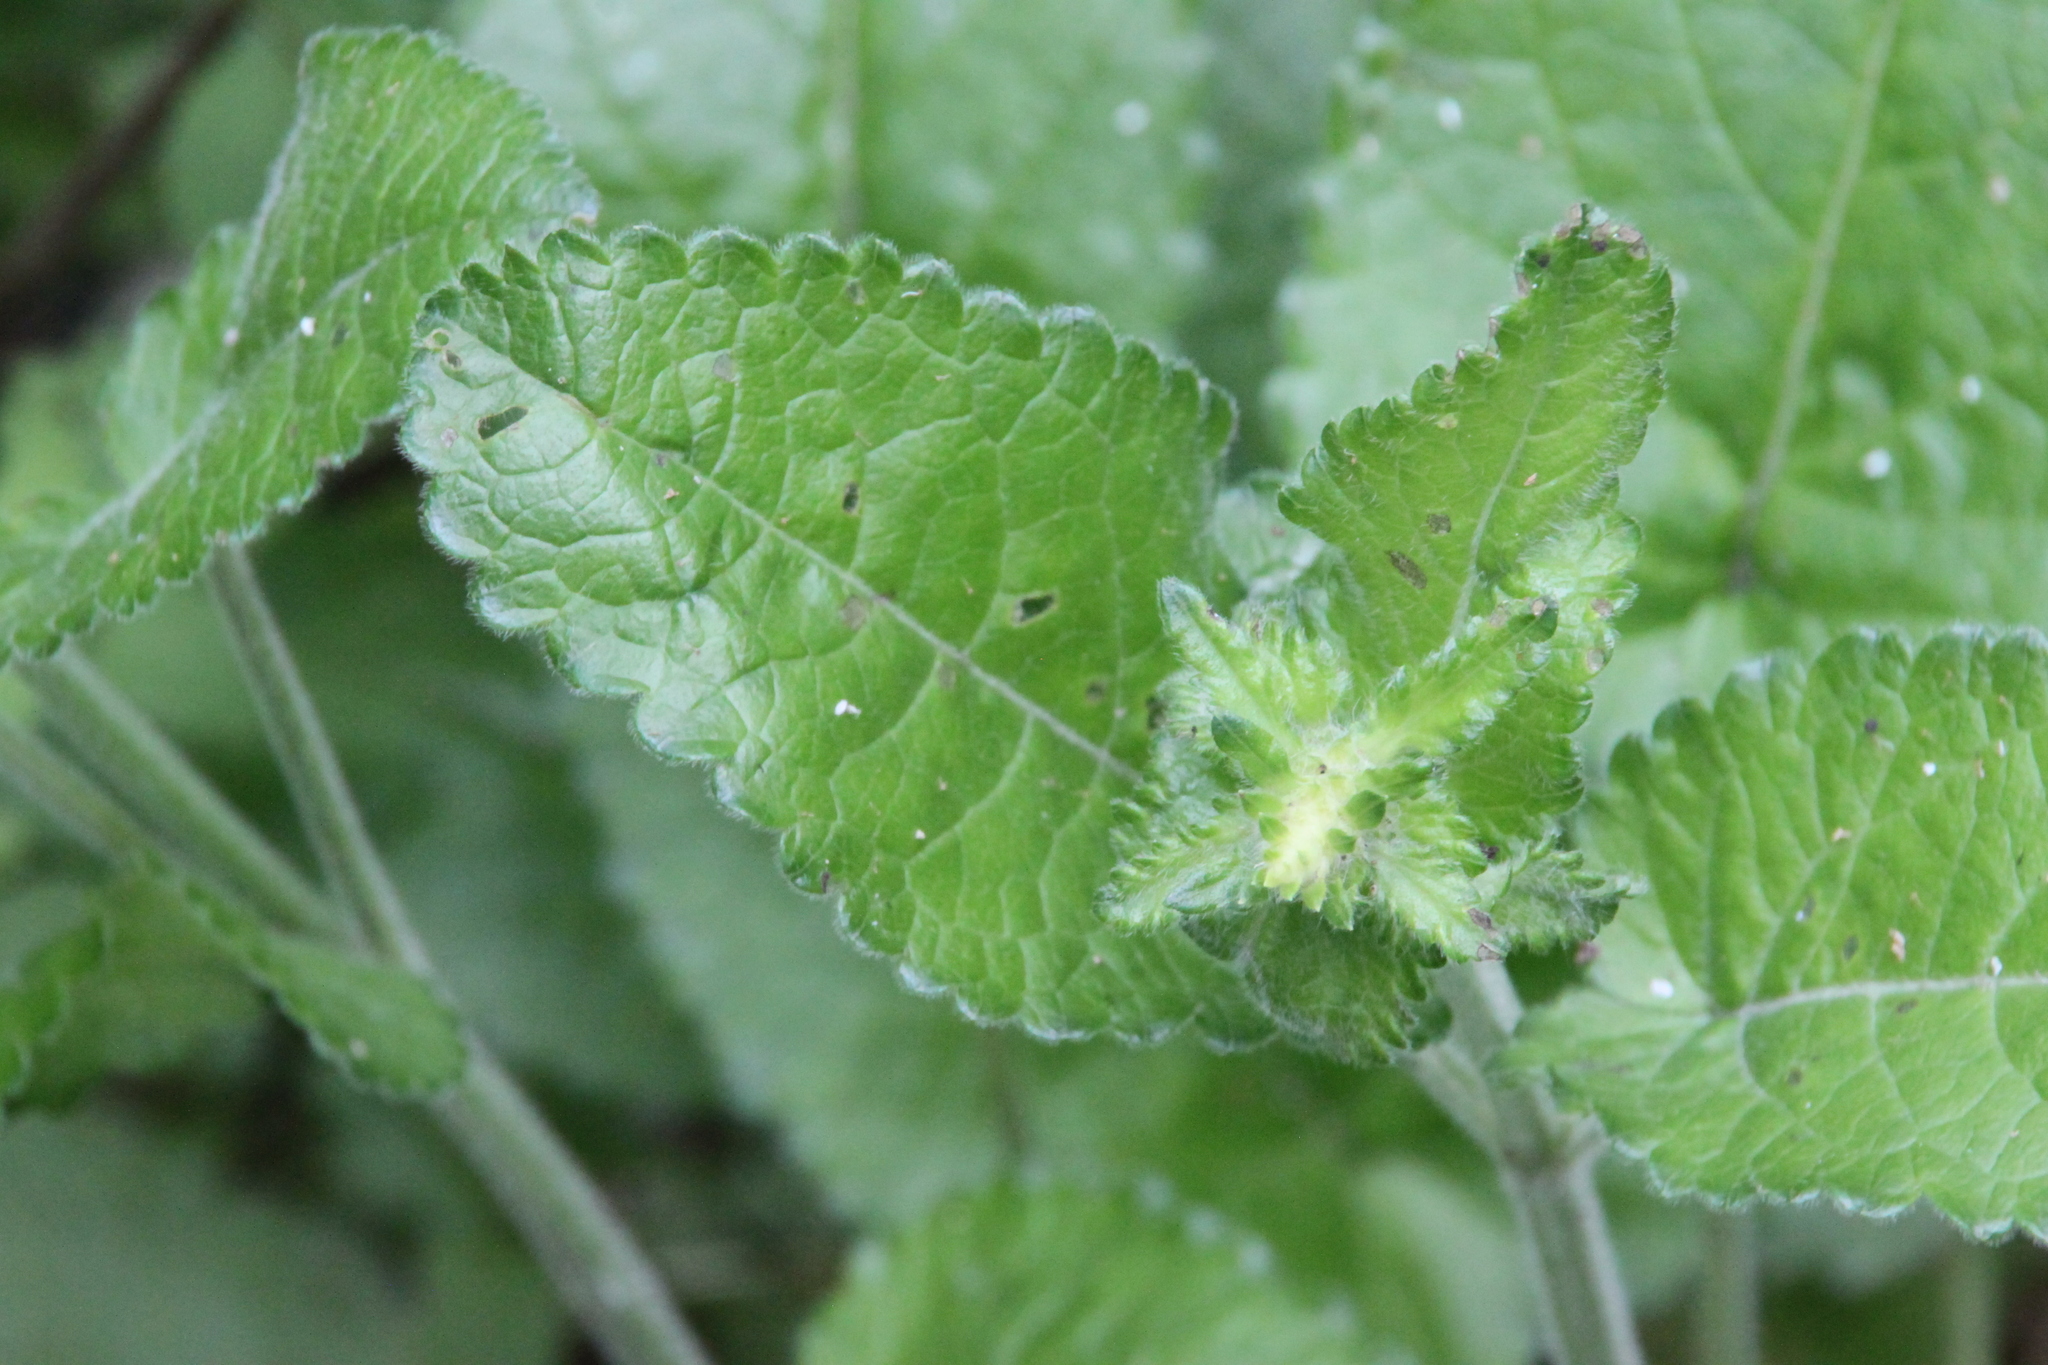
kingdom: Plantae
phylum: Tracheophyta
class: Magnoliopsida
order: Lamiales
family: Lamiaceae
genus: Betonica
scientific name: Betonica officinalis
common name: Bishop's-wort
